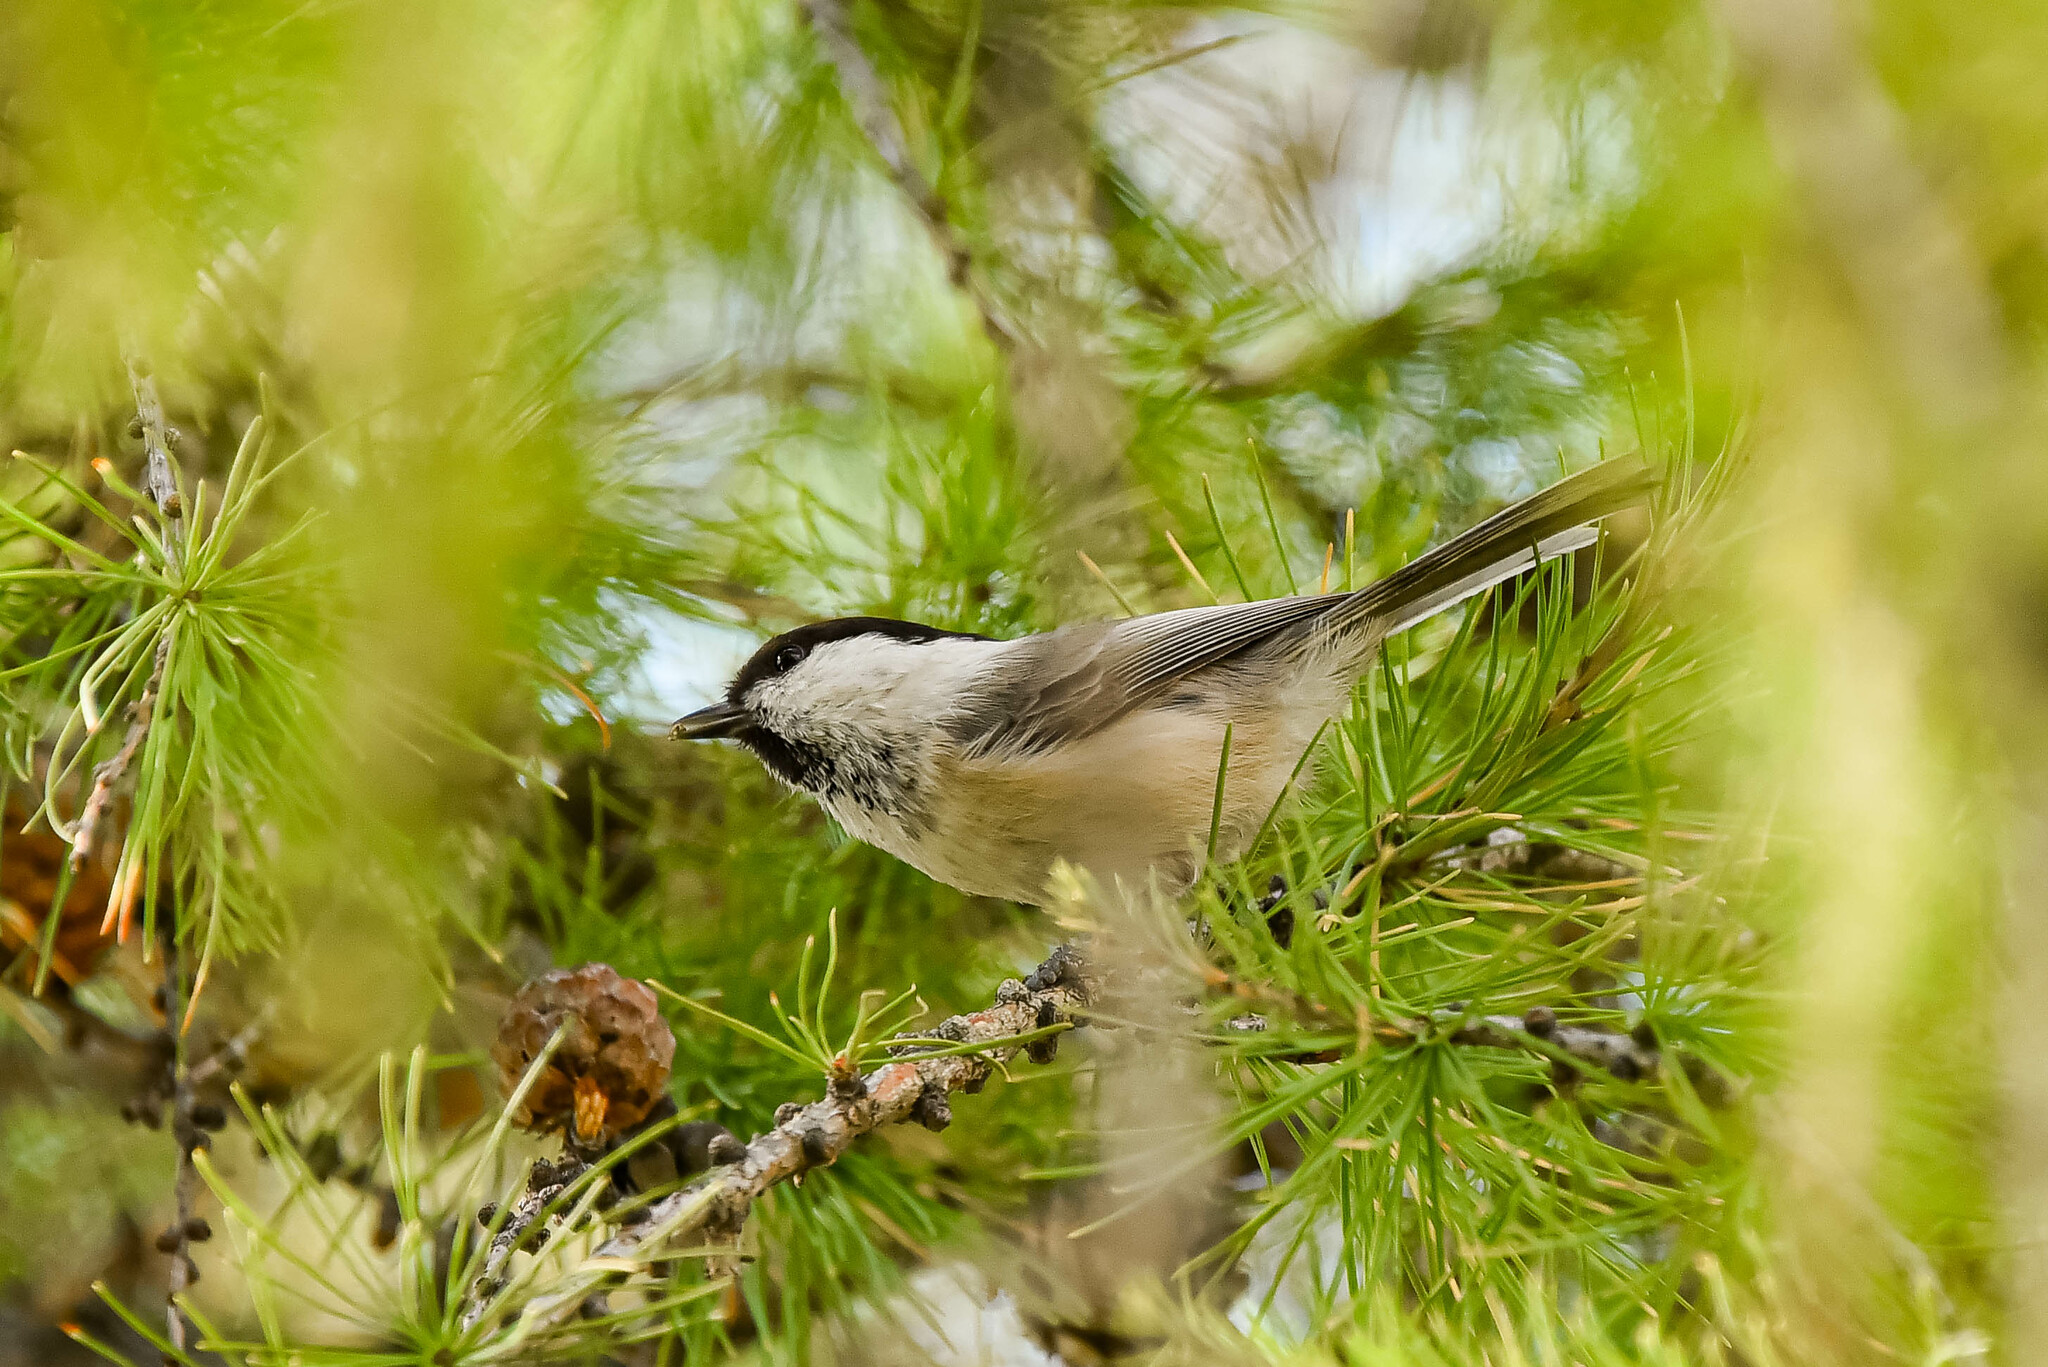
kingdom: Animalia
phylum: Chordata
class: Aves
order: Passeriformes
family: Paridae
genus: Poecile
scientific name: Poecile montanus
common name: Willow tit
